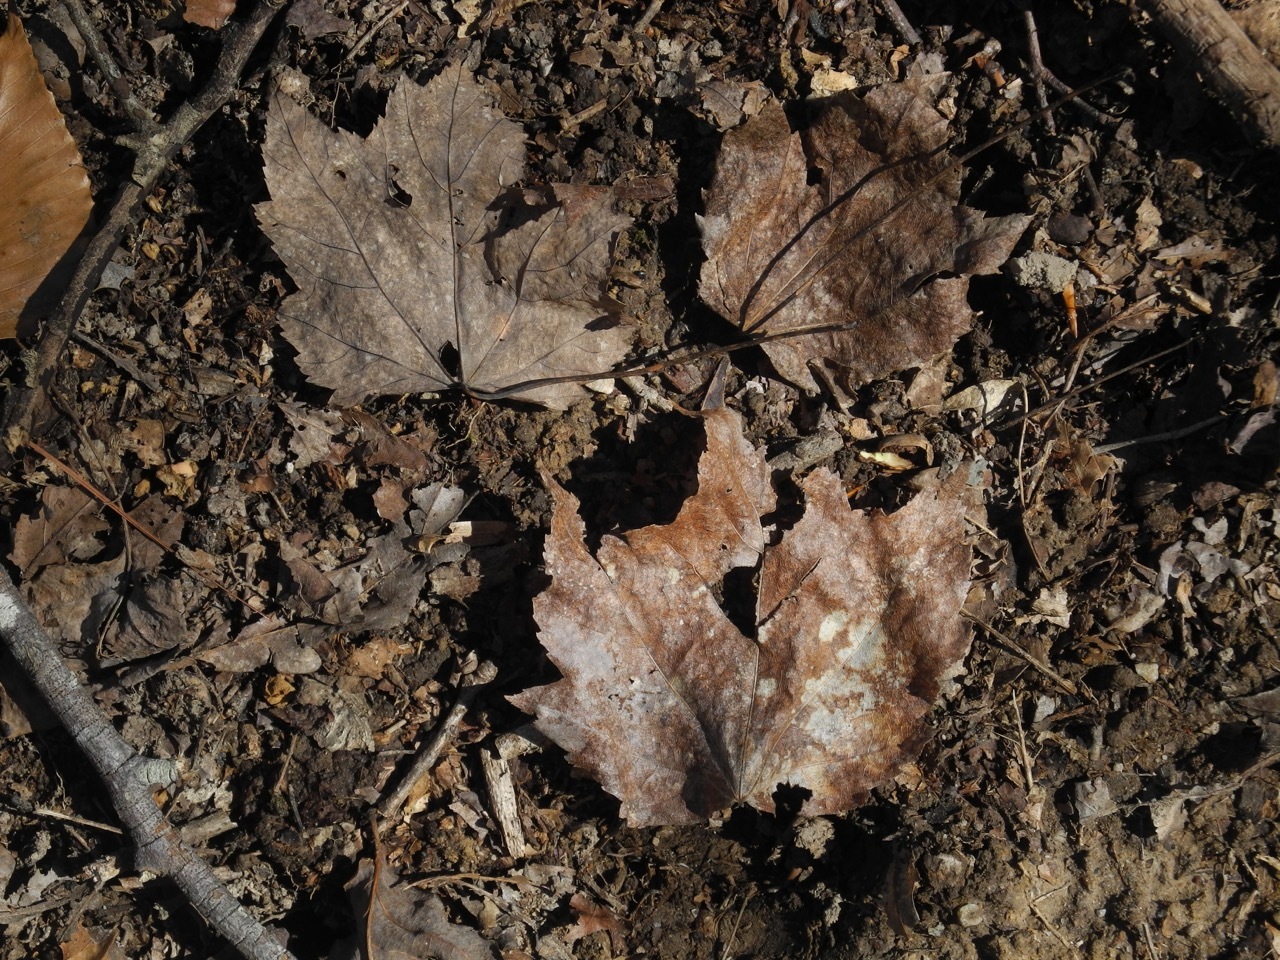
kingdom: Plantae
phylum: Tracheophyta
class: Magnoliopsida
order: Sapindales
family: Sapindaceae
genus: Acer
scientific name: Acer rubrum
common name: Red maple
